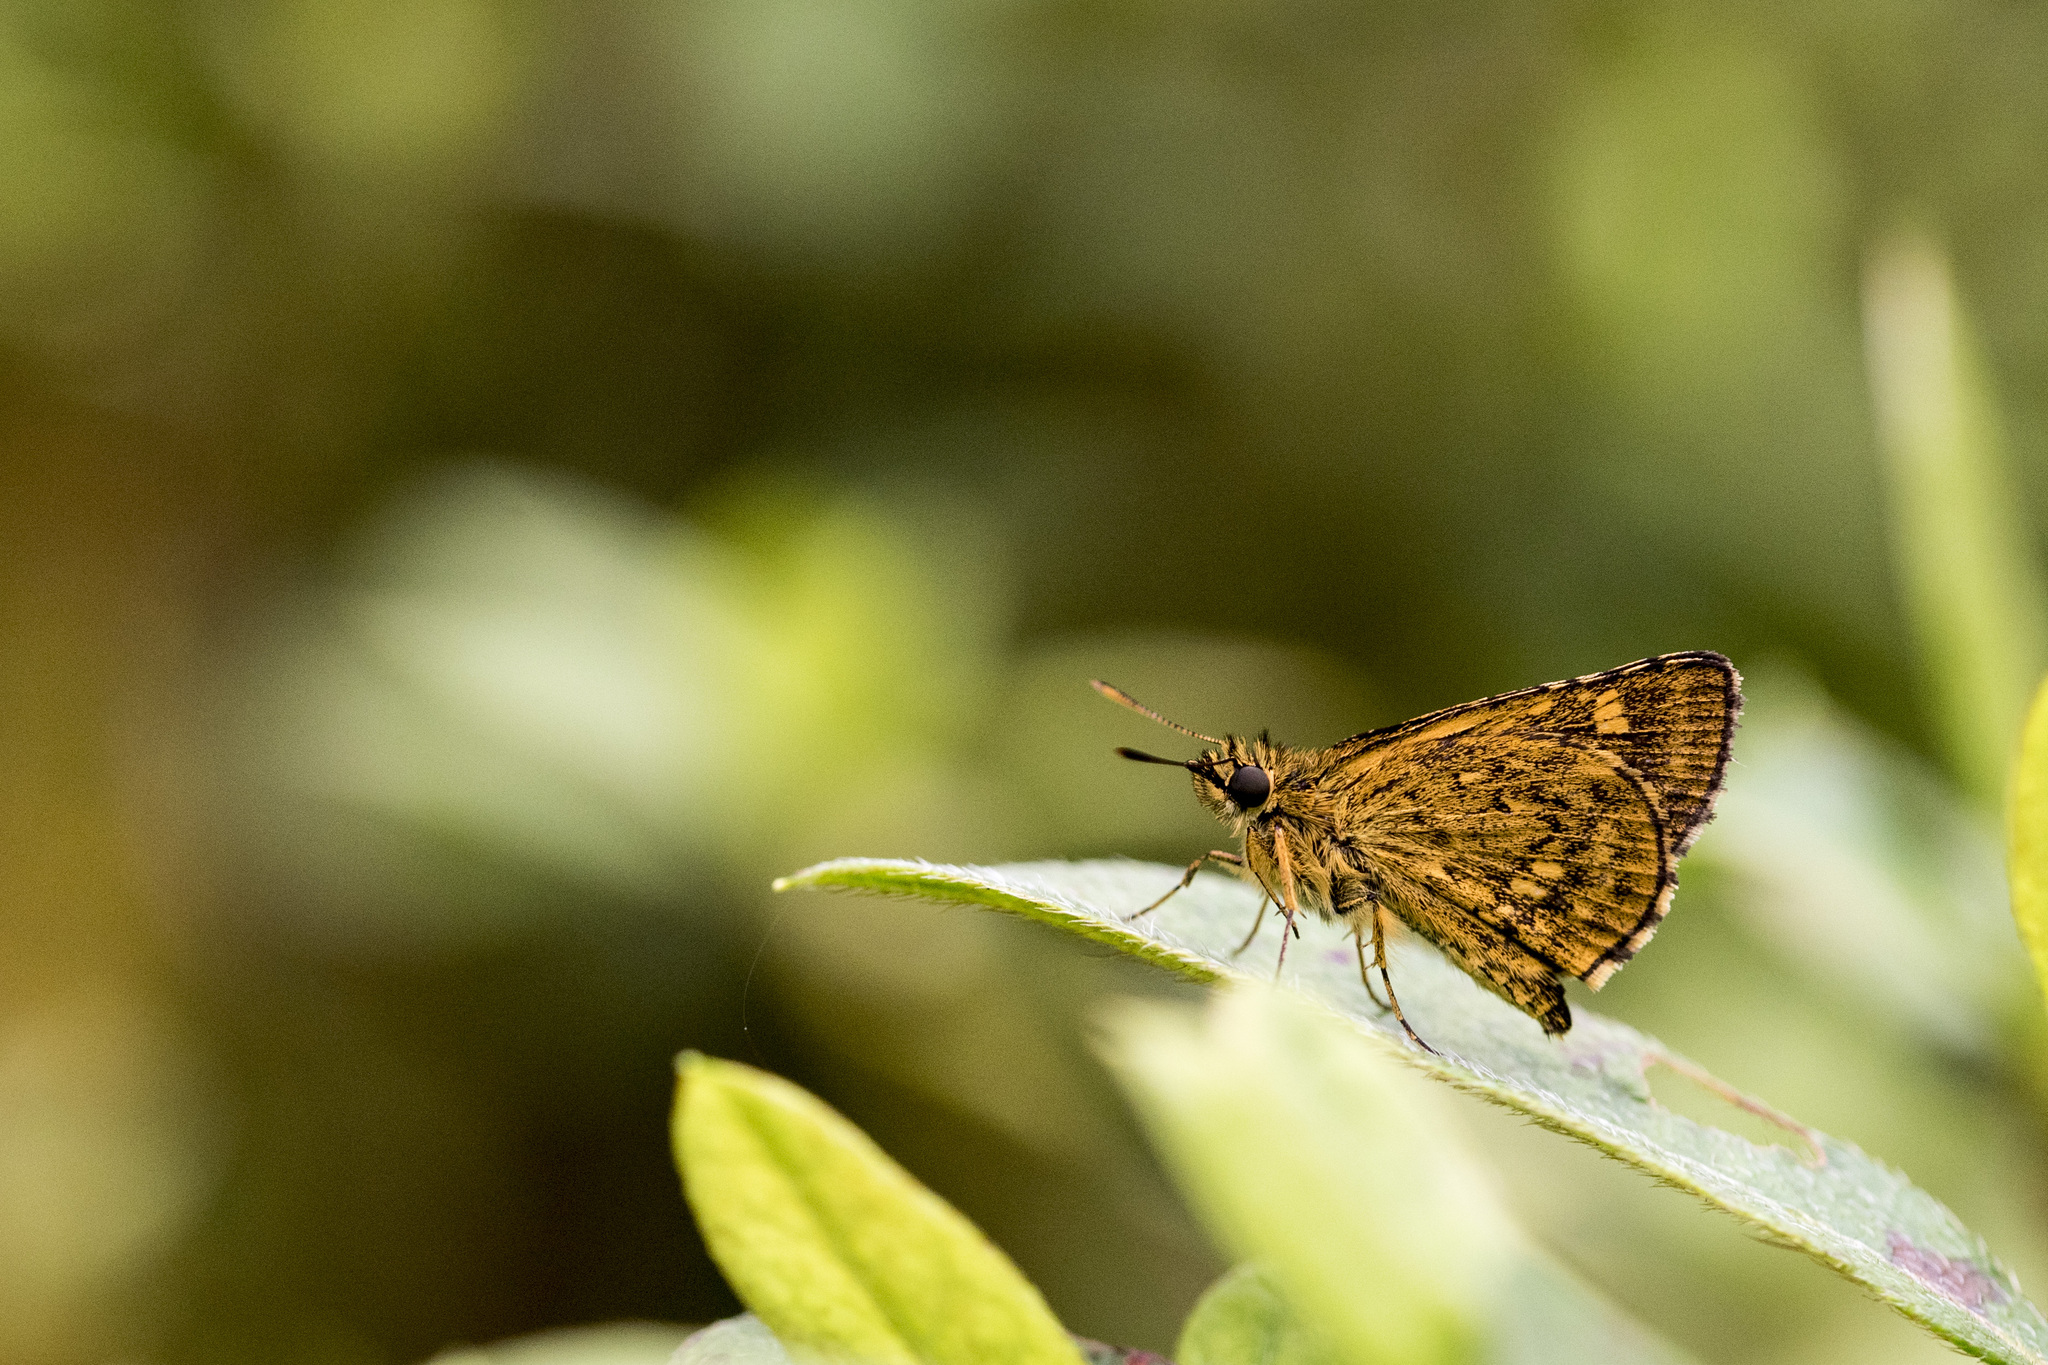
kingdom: Animalia
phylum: Arthropoda
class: Insecta
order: Lepidoptera
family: Hesperiidae
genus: Ampittia
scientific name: Ampittia virgata
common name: Striped bush hopper
